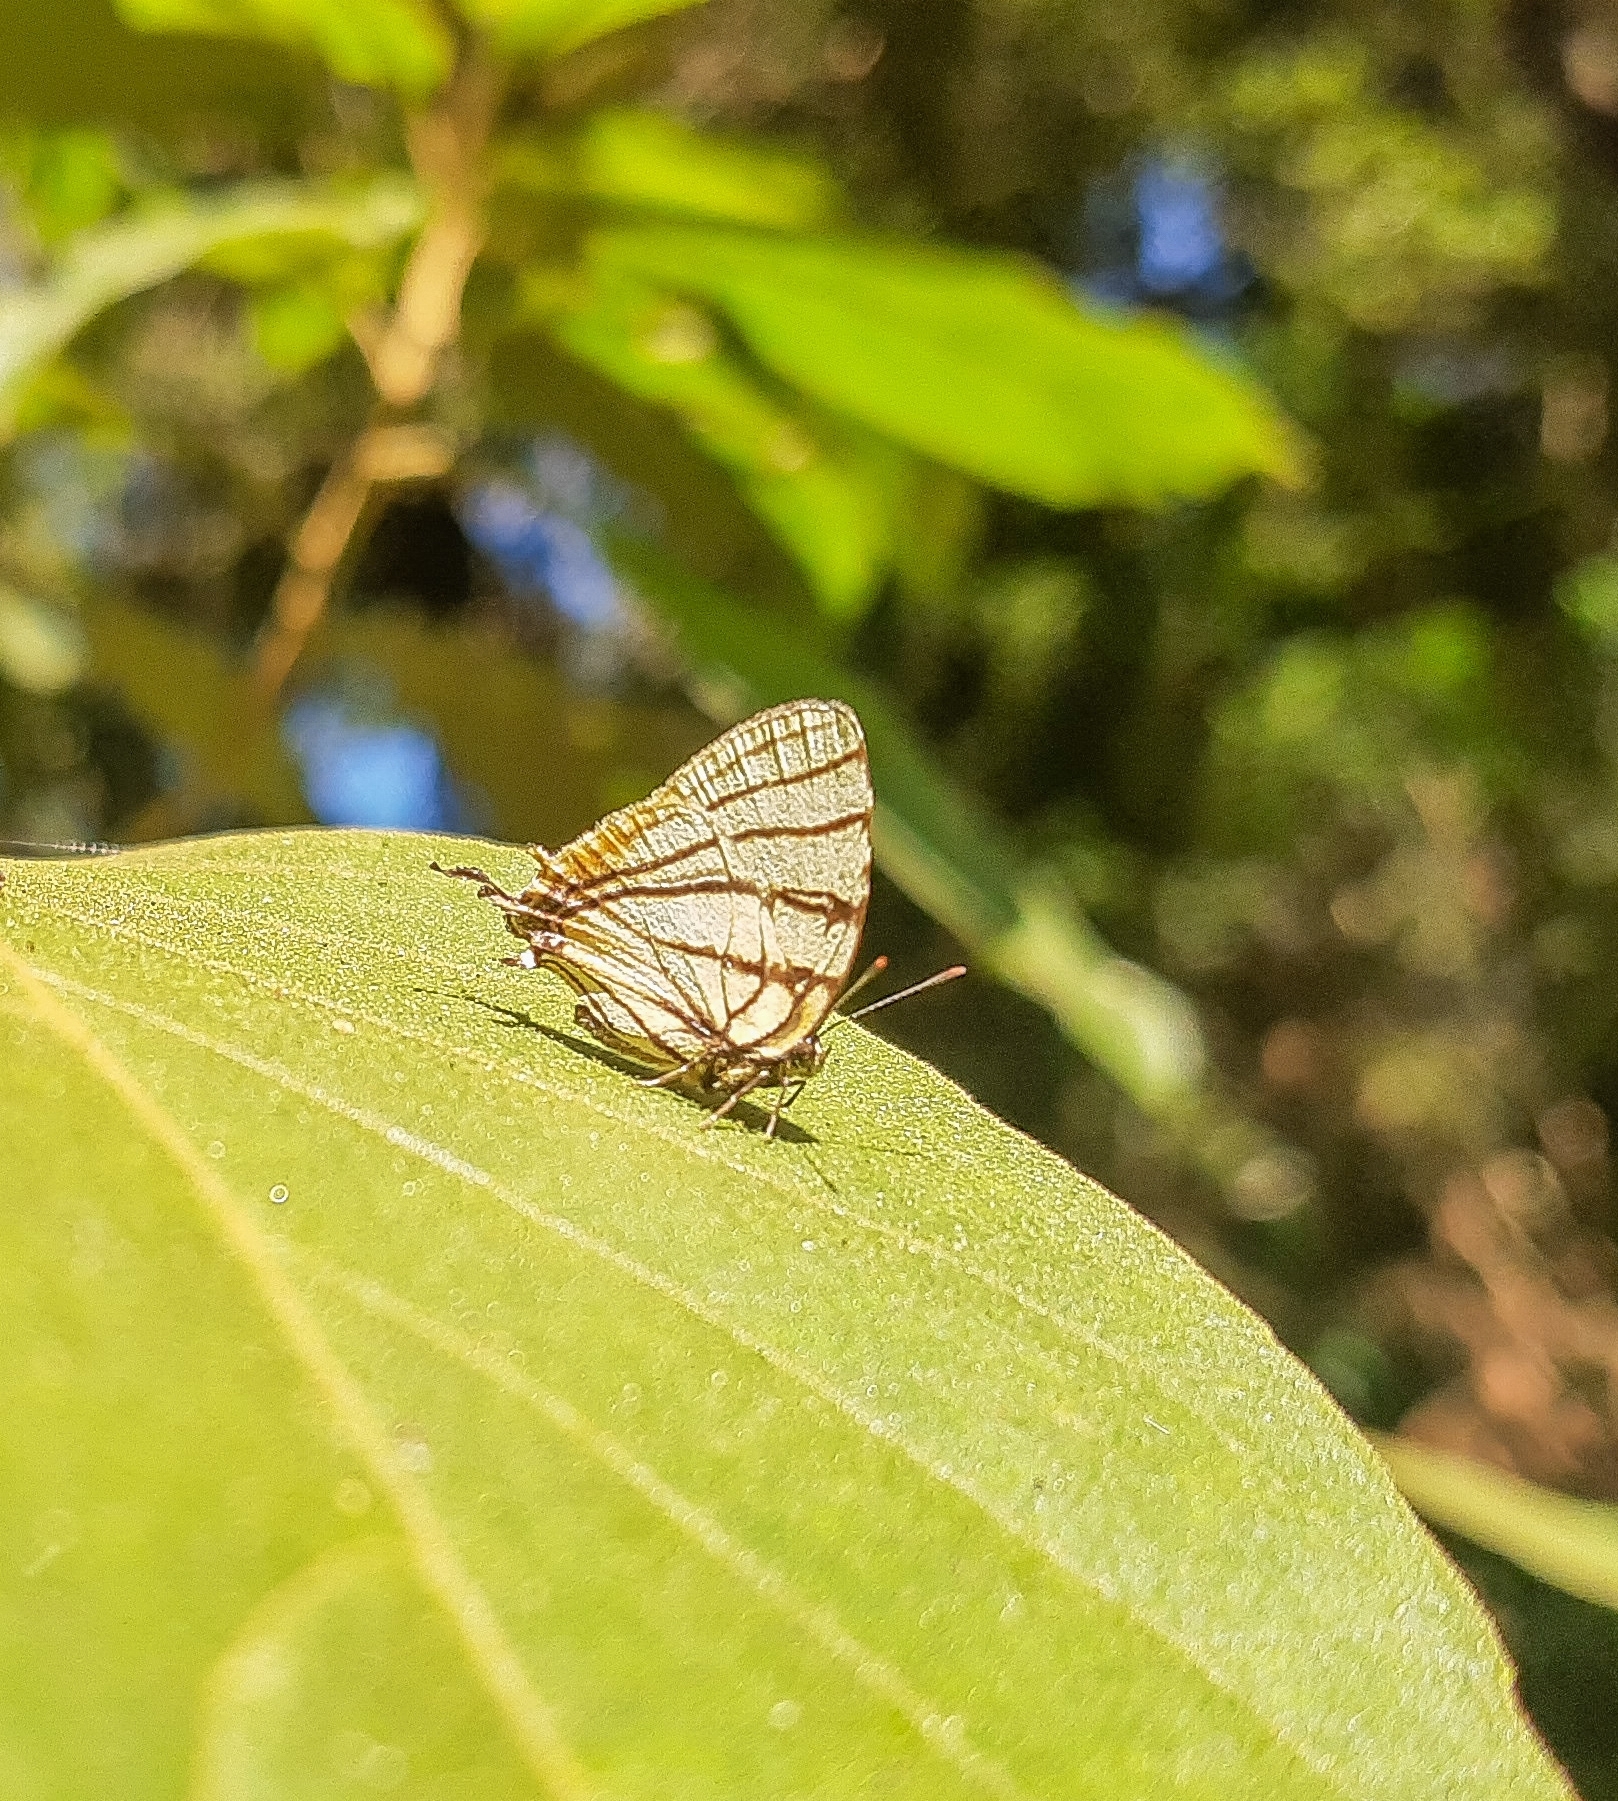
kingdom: Animalia
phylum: Arthropoda
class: Insecta
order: Lepidoptera
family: Lycaenidae
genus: Arawacus
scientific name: Arawacus melibaeus
